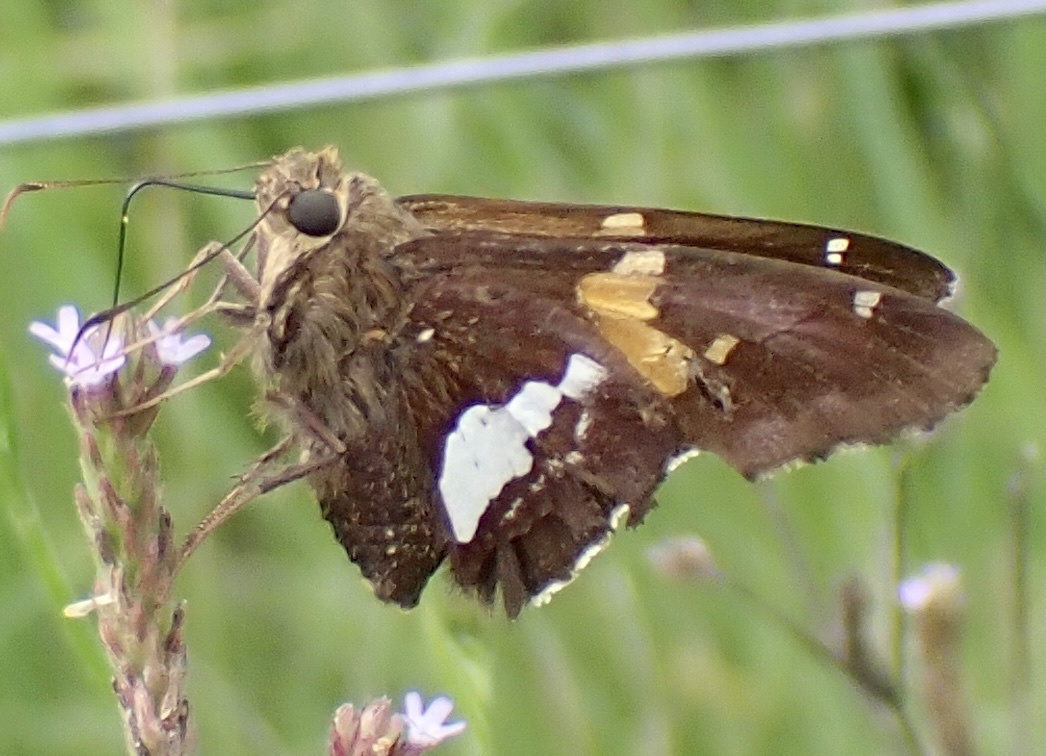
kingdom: Animalia
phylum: Arthropoda
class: Insecta
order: Lepidoptera
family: Hesperiidae
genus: Epargyreus
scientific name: Epargyreus clarus
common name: Silver-spotted skipper
